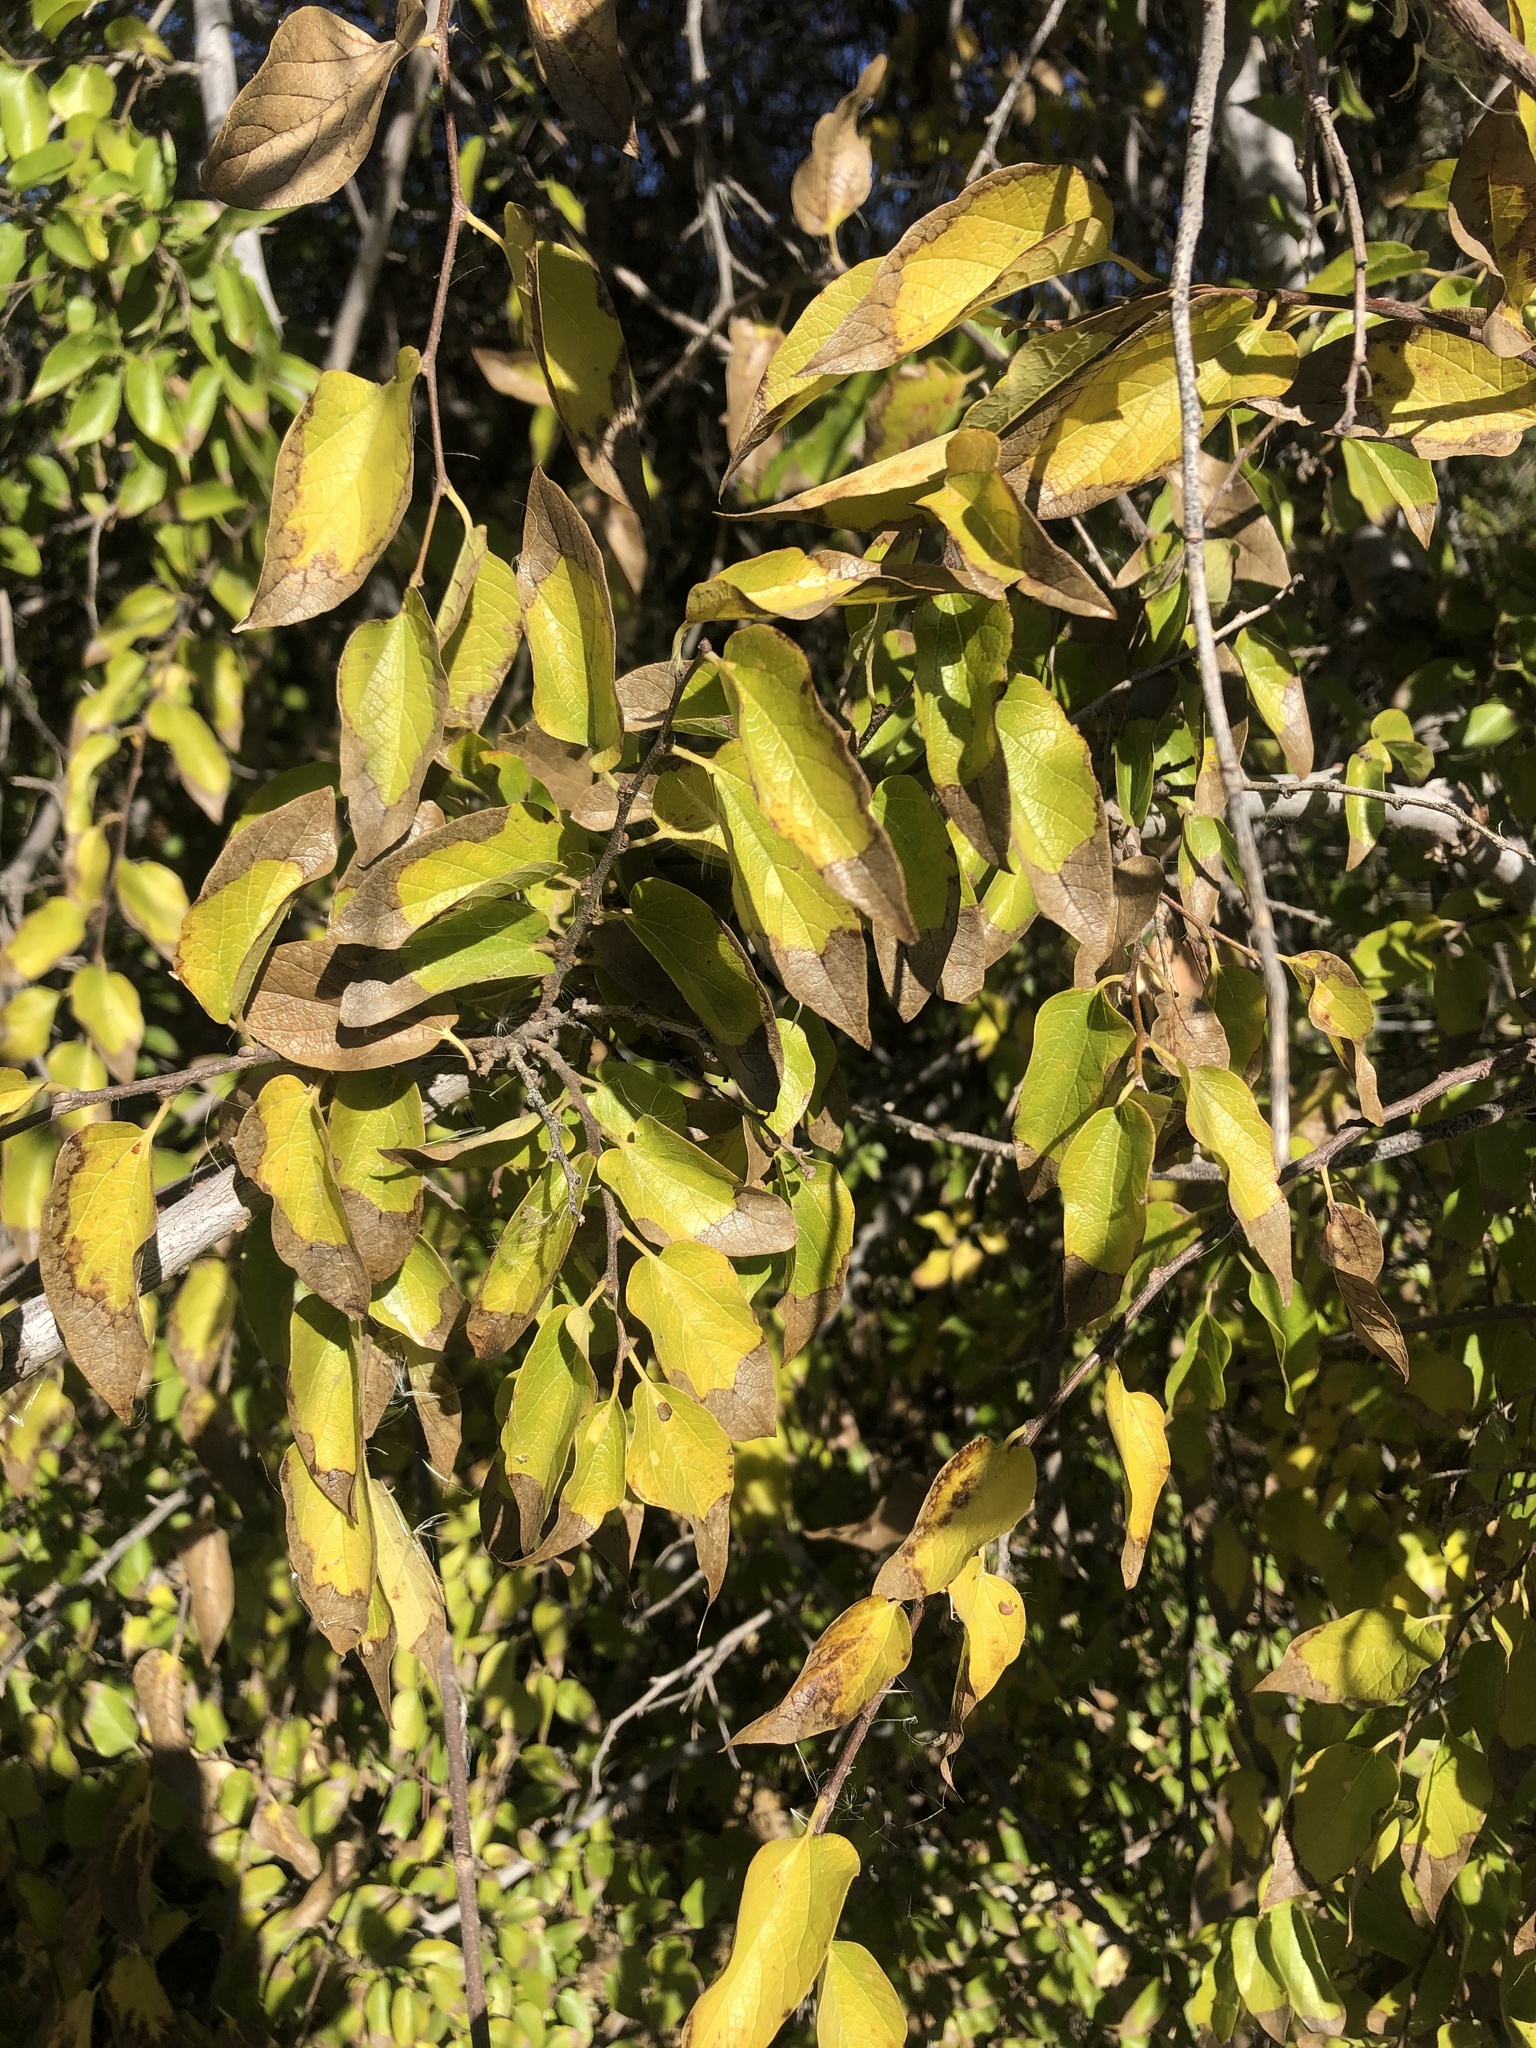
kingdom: Plantae
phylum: Tracheophyta
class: Magnoliopsida
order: Rosales
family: Cannabaceae
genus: Celtis
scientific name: Celtis reticulata
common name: Netleaf hackberry
